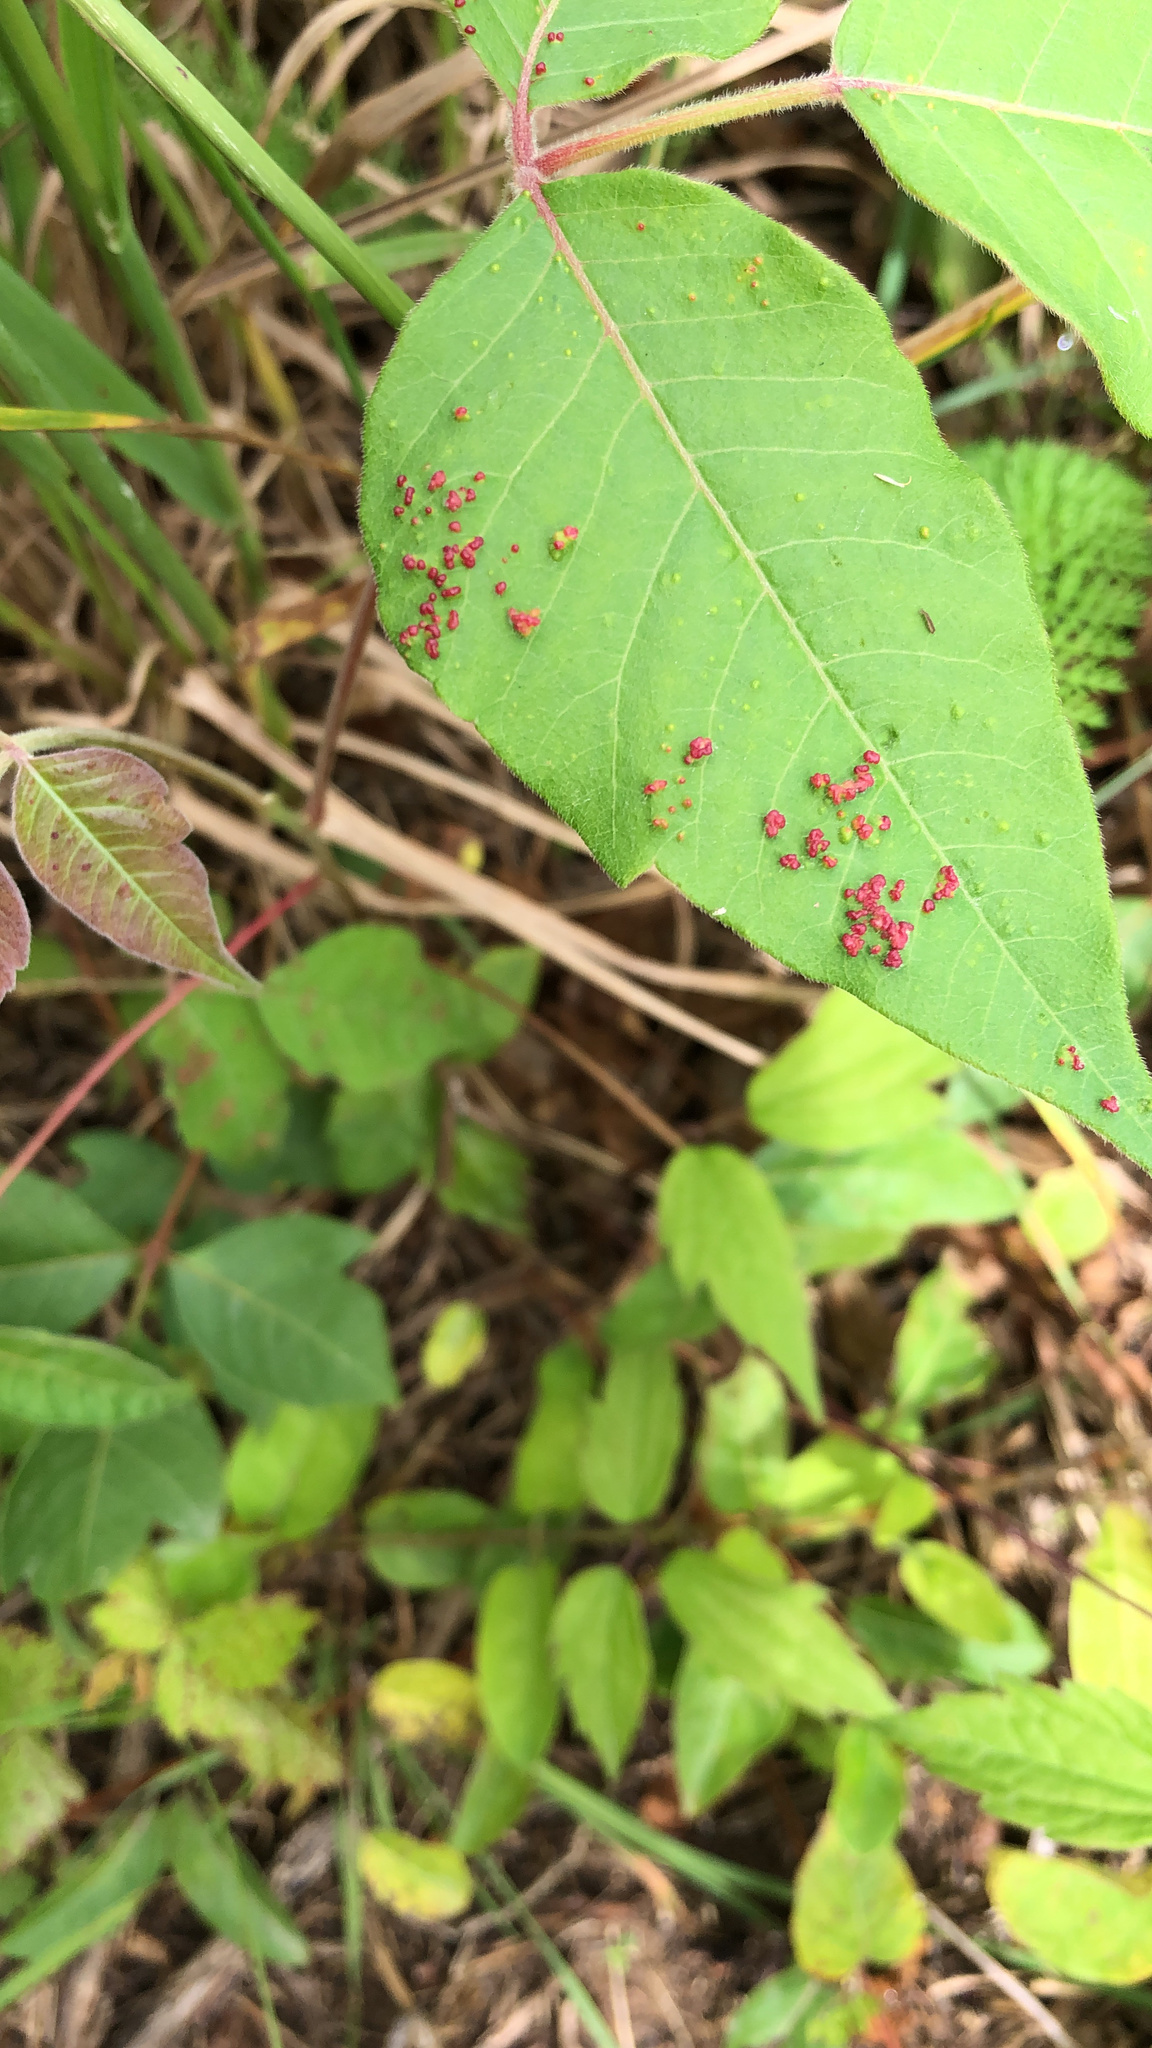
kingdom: Animalia
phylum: Arthropoda
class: Arachnida
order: Trombidiformes
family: Eriophyidae
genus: Aculops
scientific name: Aculops
